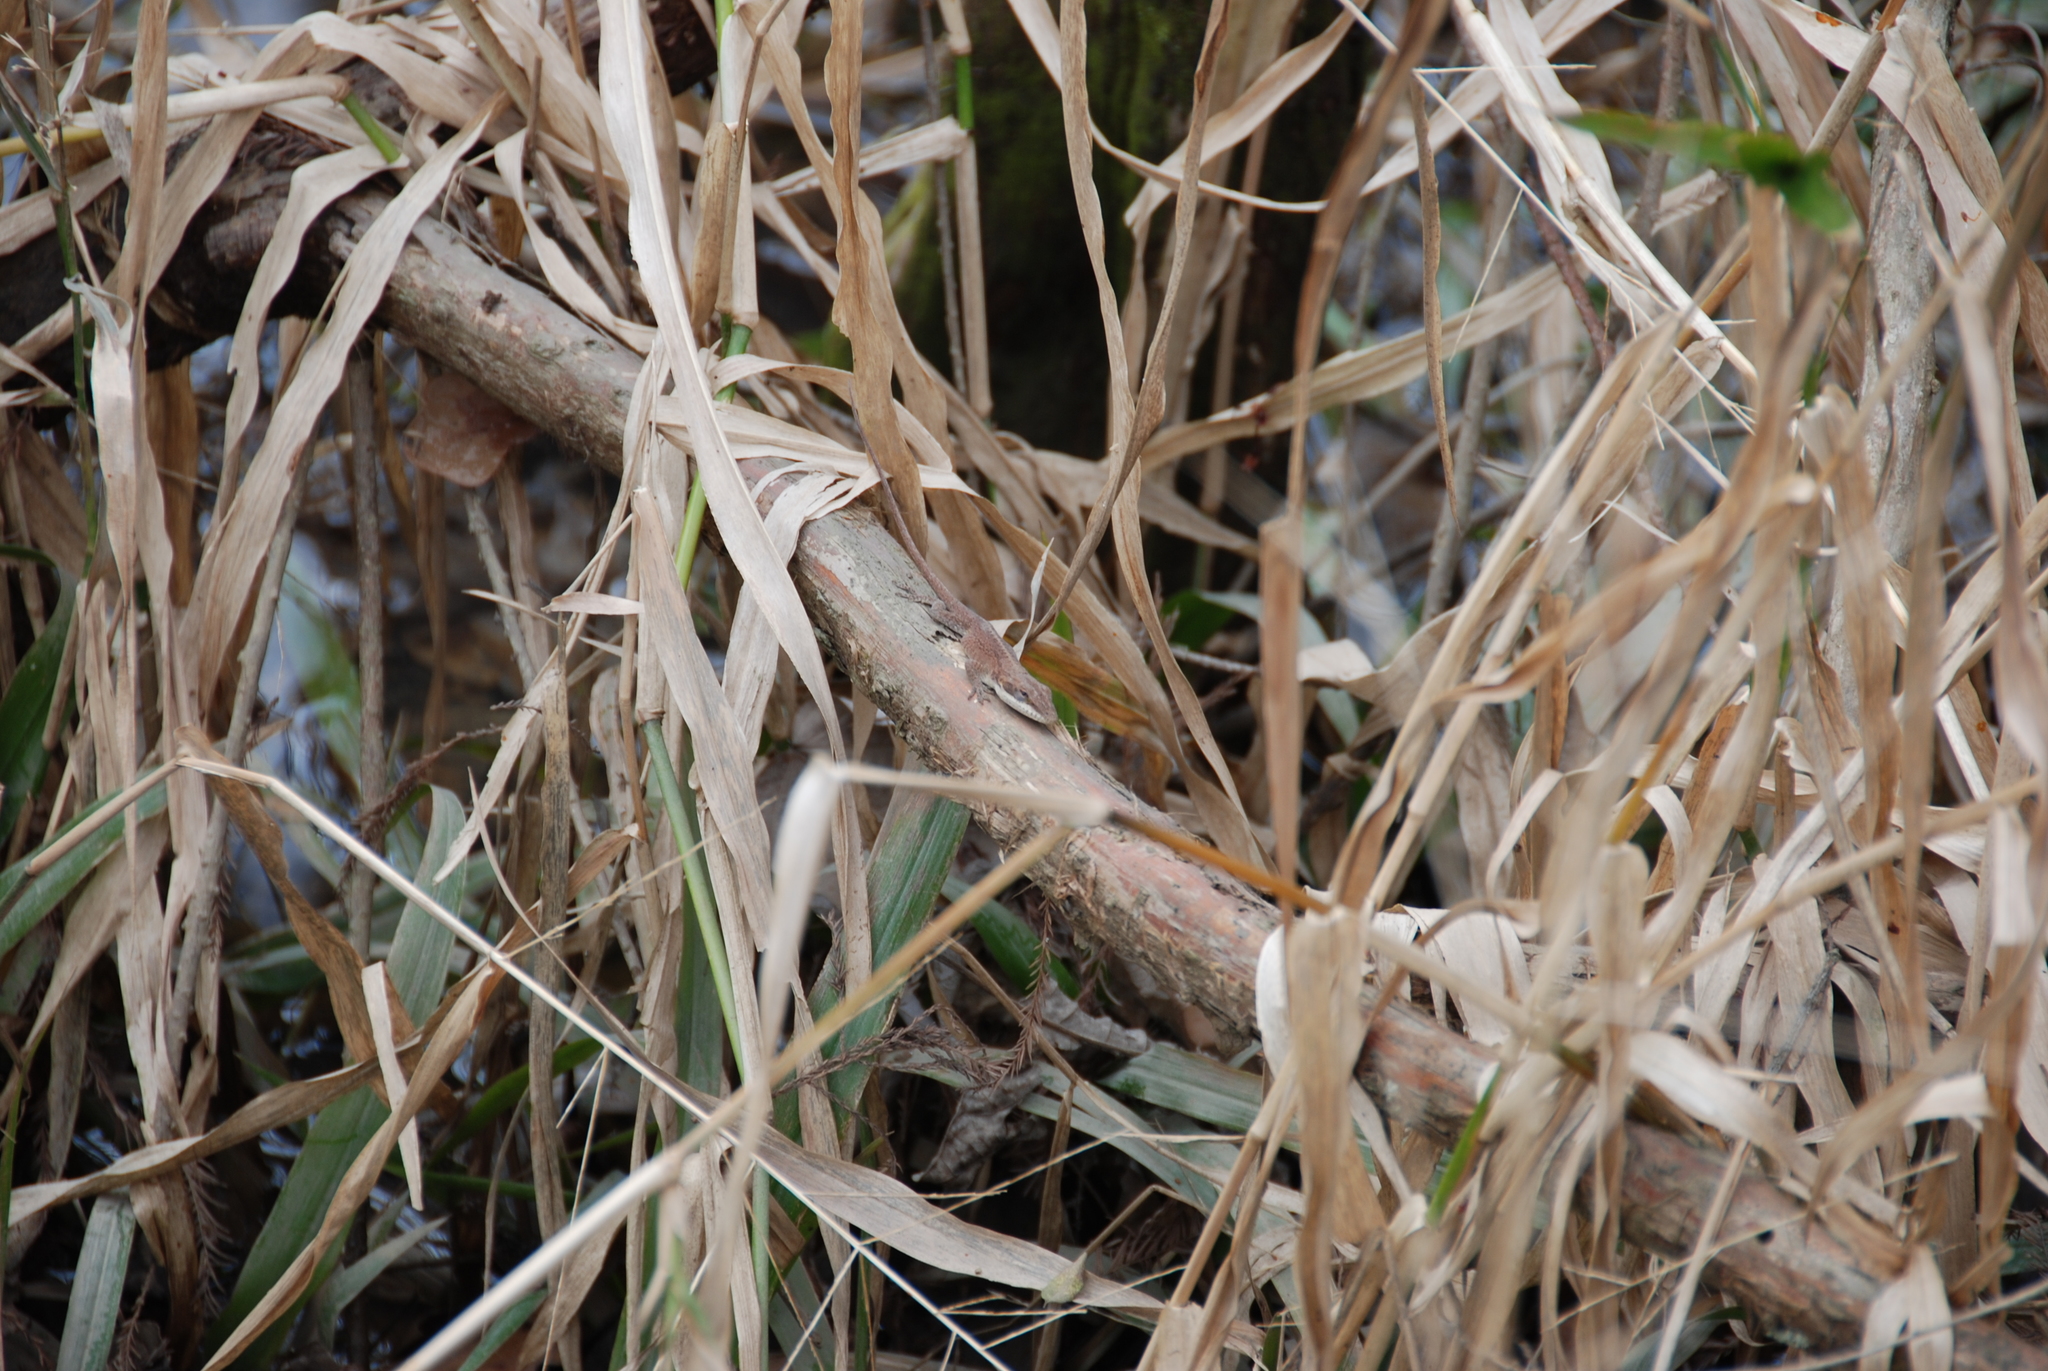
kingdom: Animalia
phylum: Chordata
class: Squamata
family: Dactyloidae
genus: Anolis
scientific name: Anolis carolinensis
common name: Green anole
